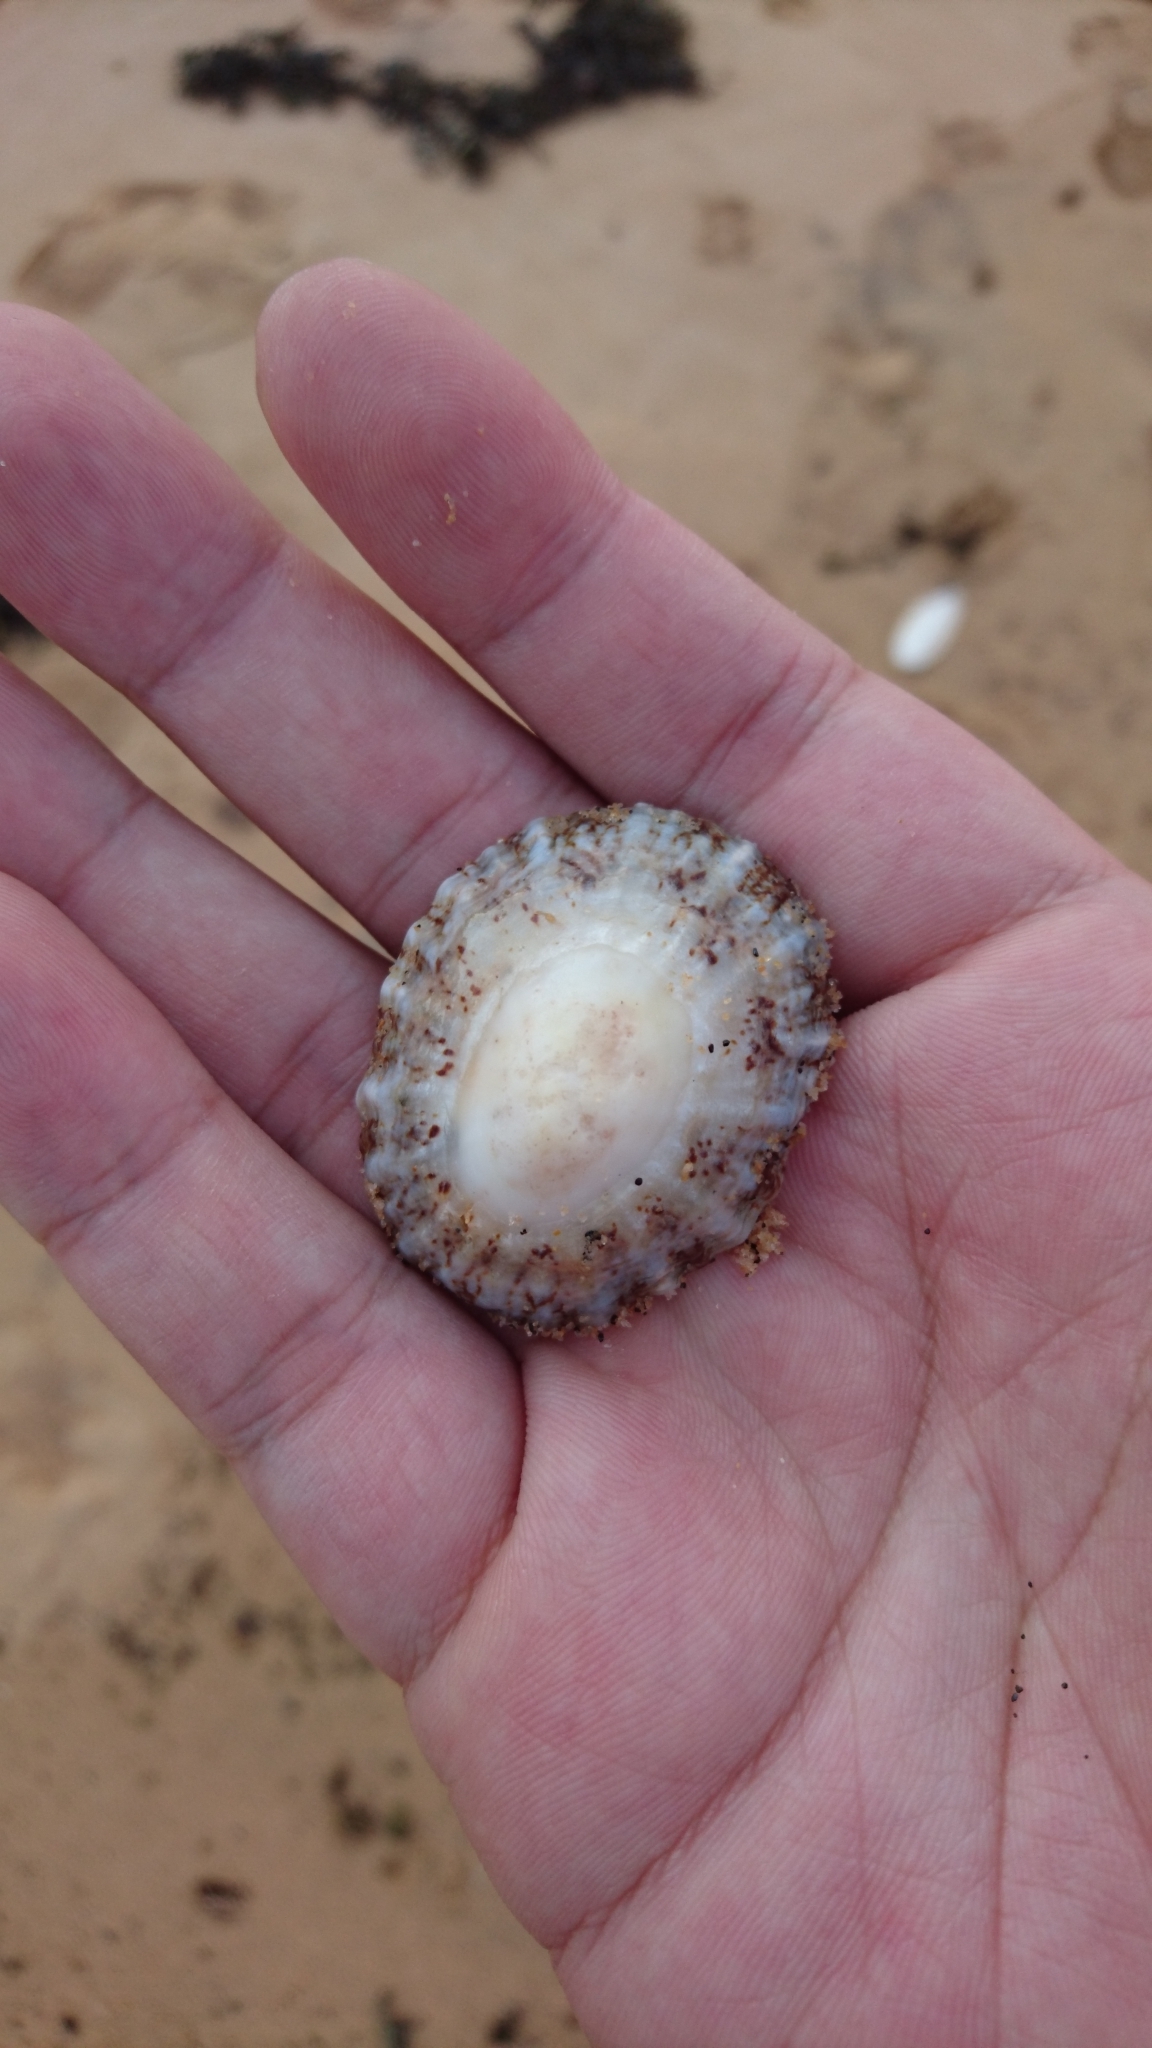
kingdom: Animalia
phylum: Mollusca
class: Gastropoda
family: Nacellidae
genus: Cellana
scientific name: Cellana tramoserica
